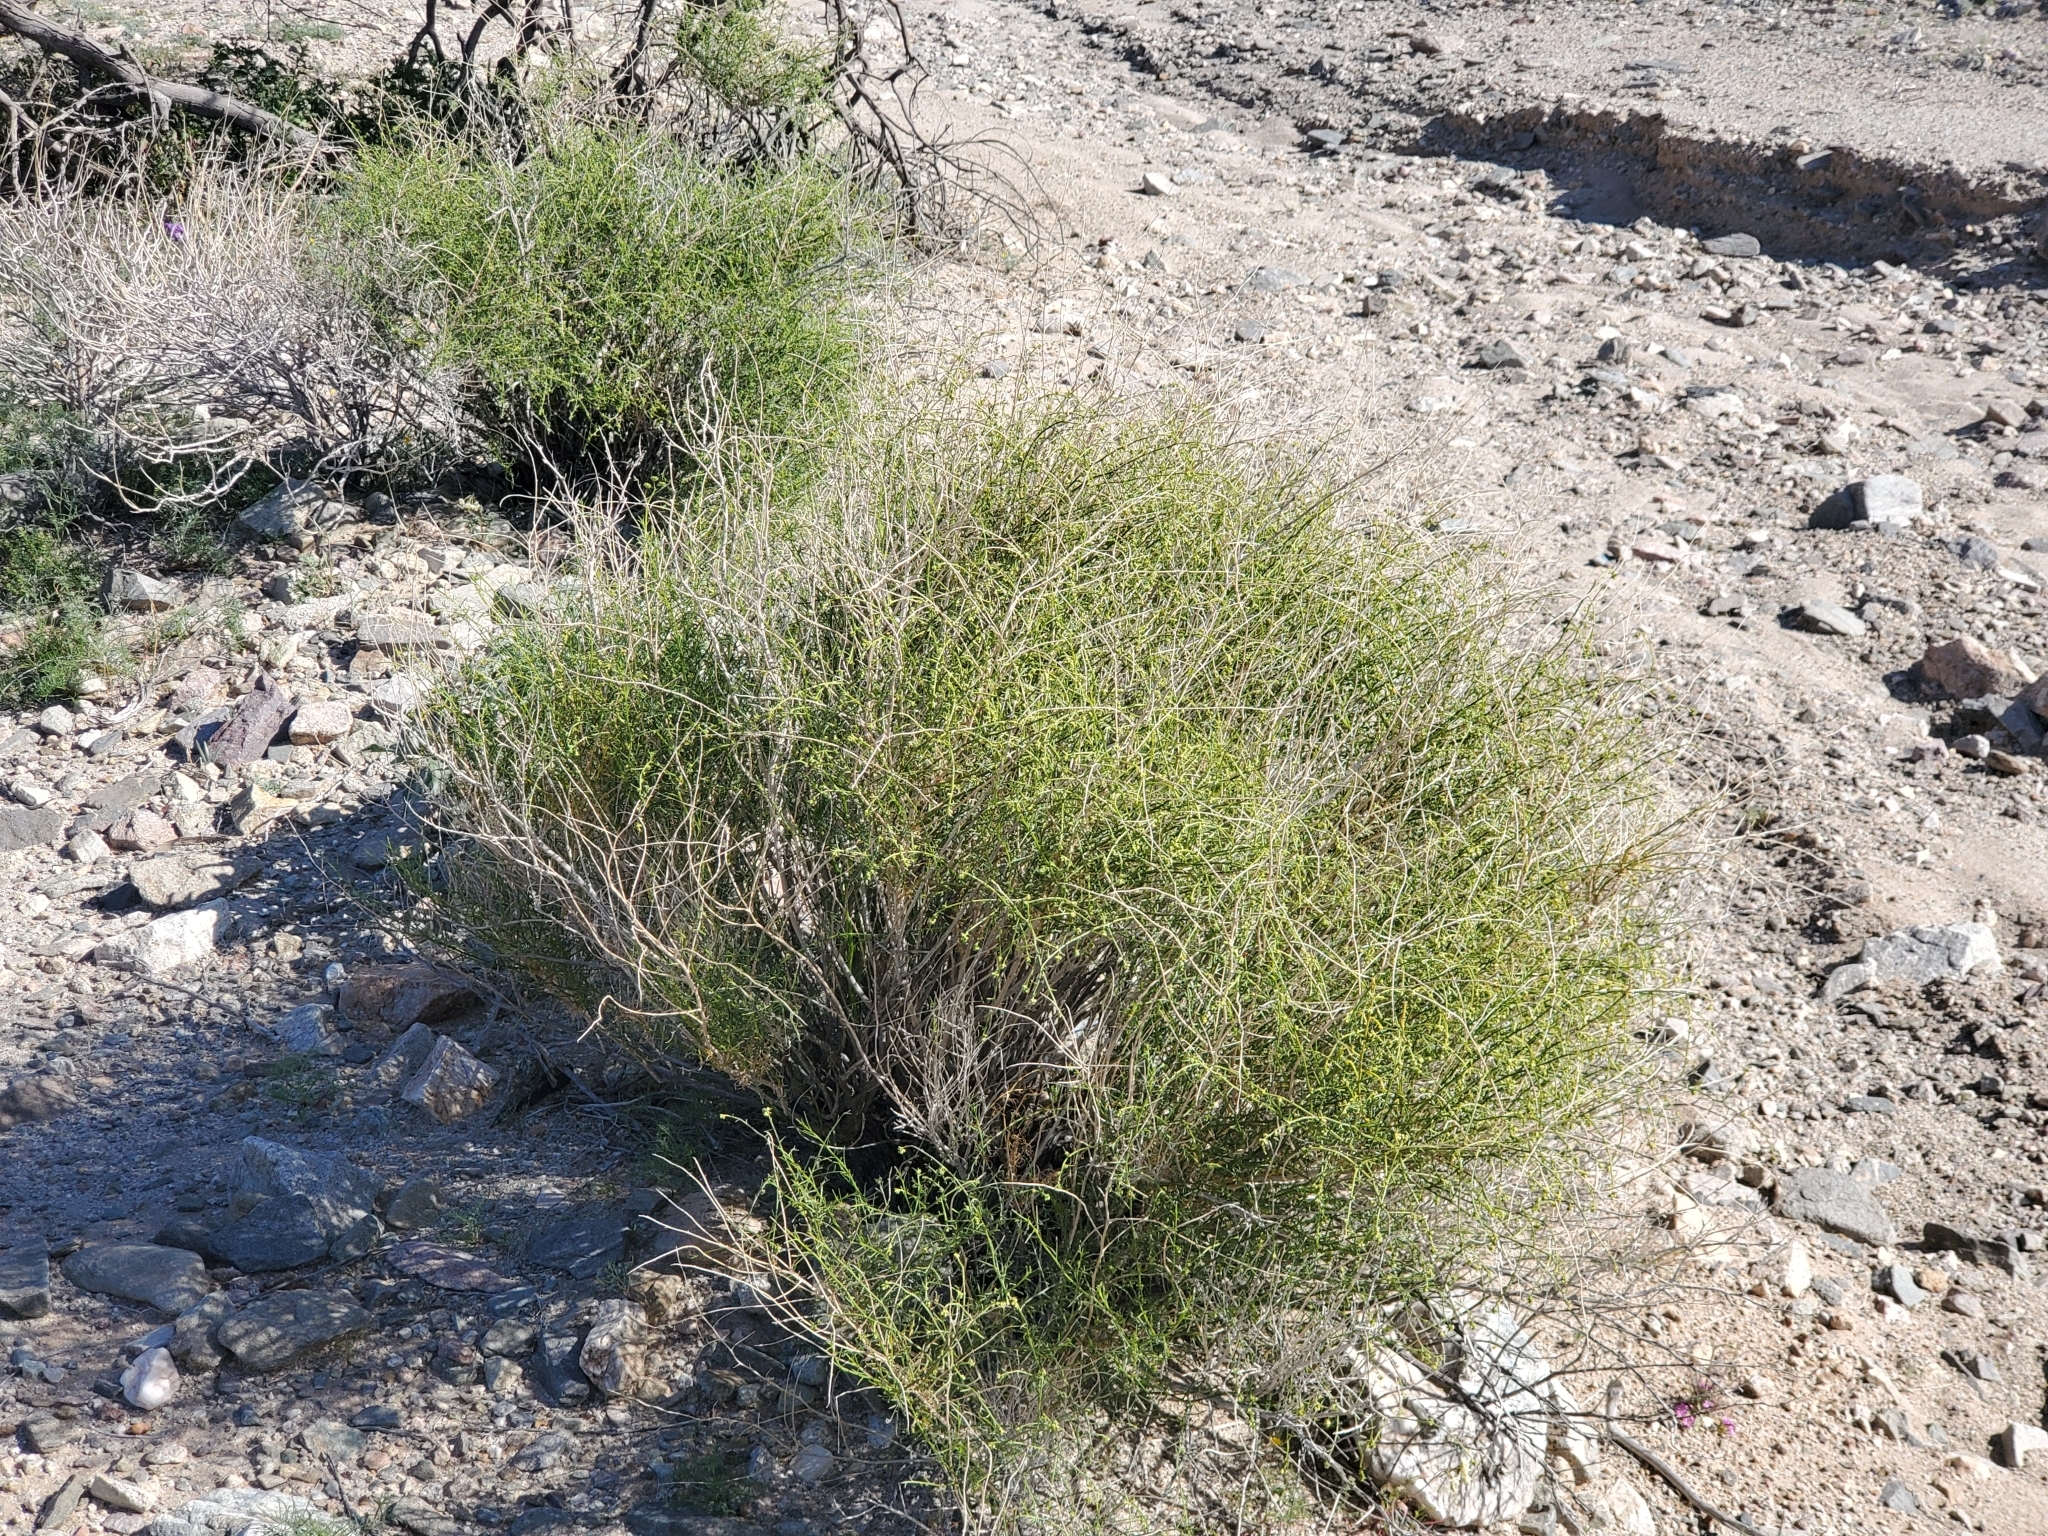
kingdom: Plantae
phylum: Tracheophyta
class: Magnoliopsida
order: Asterales
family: Asteraceae
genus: Ambrosia
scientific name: Ambrosia salsola
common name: Burrobrush
